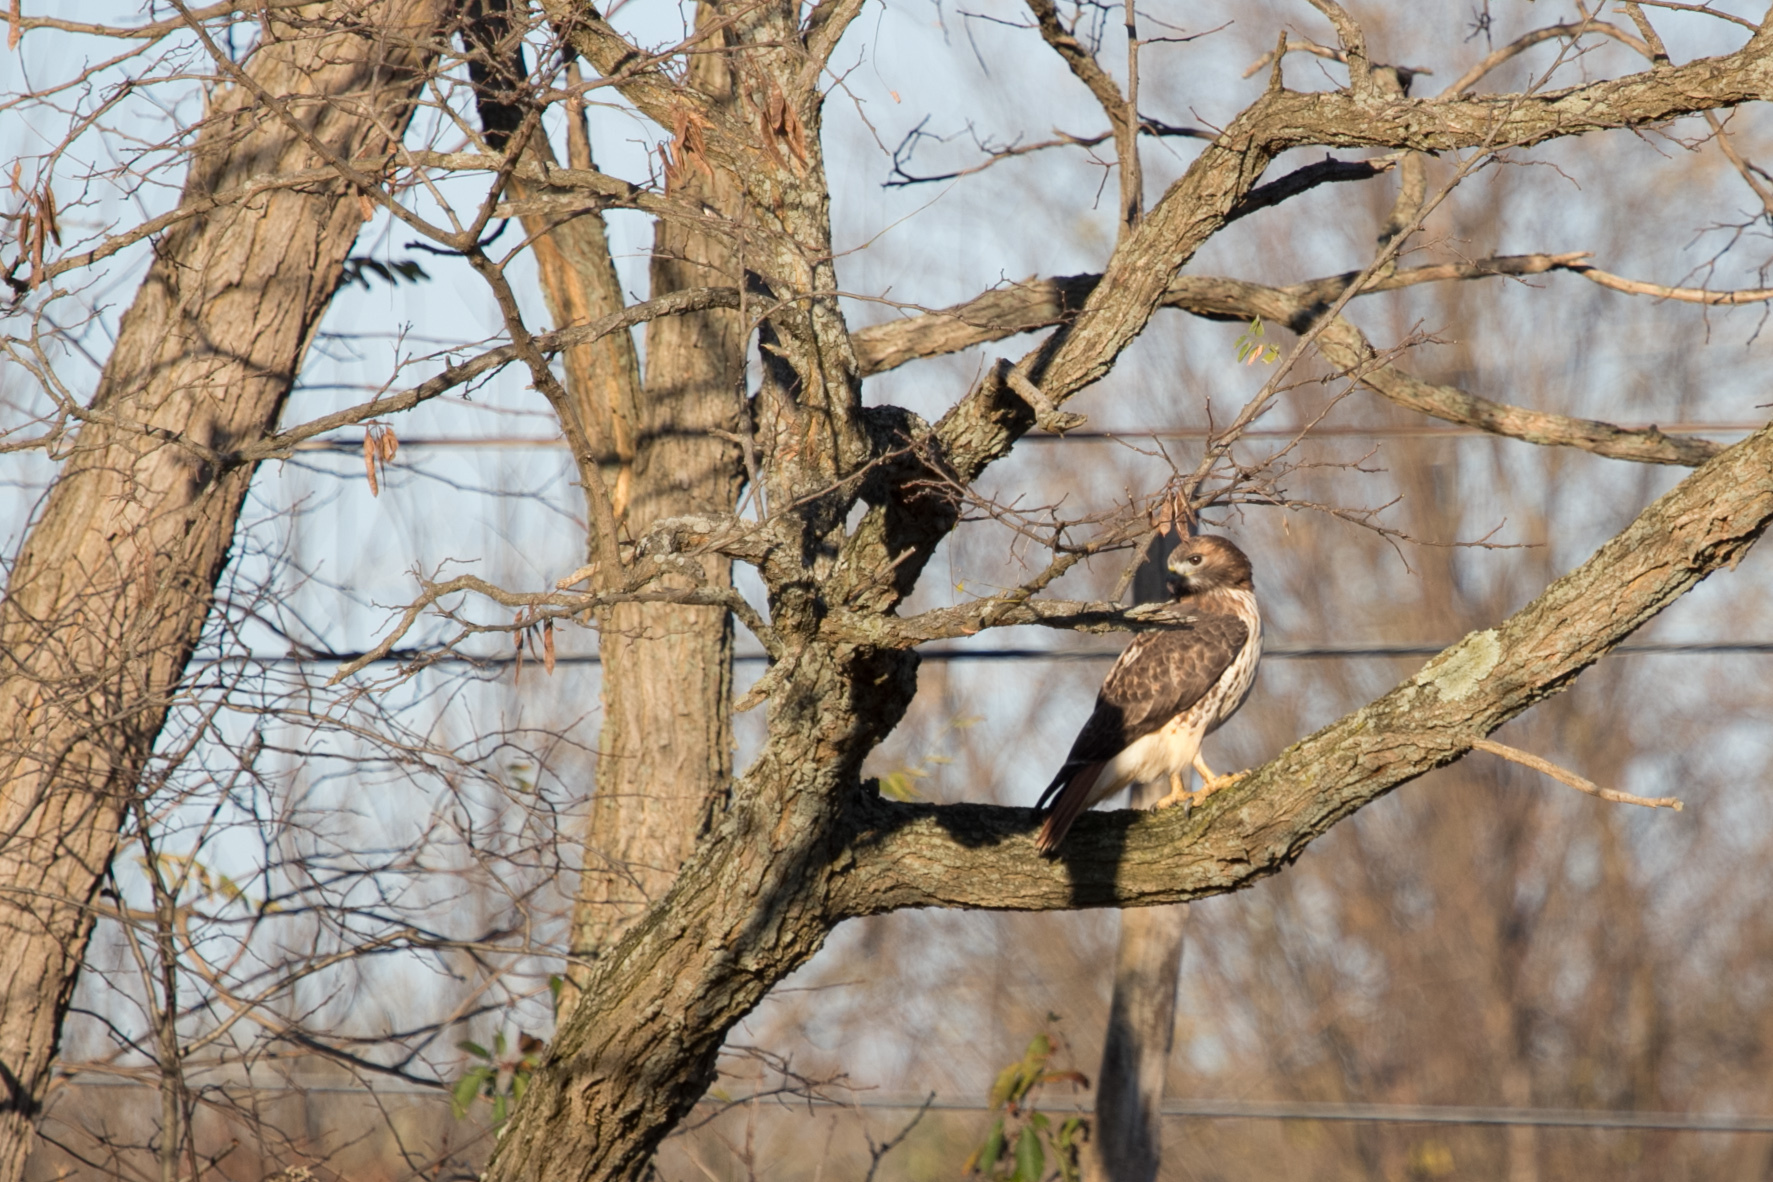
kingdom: Animalia
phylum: Chordata
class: Aves
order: Accipitriformes
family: Accipitridae
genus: Buteo
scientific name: Buteo jamaicensis
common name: Red-tailed hawk
